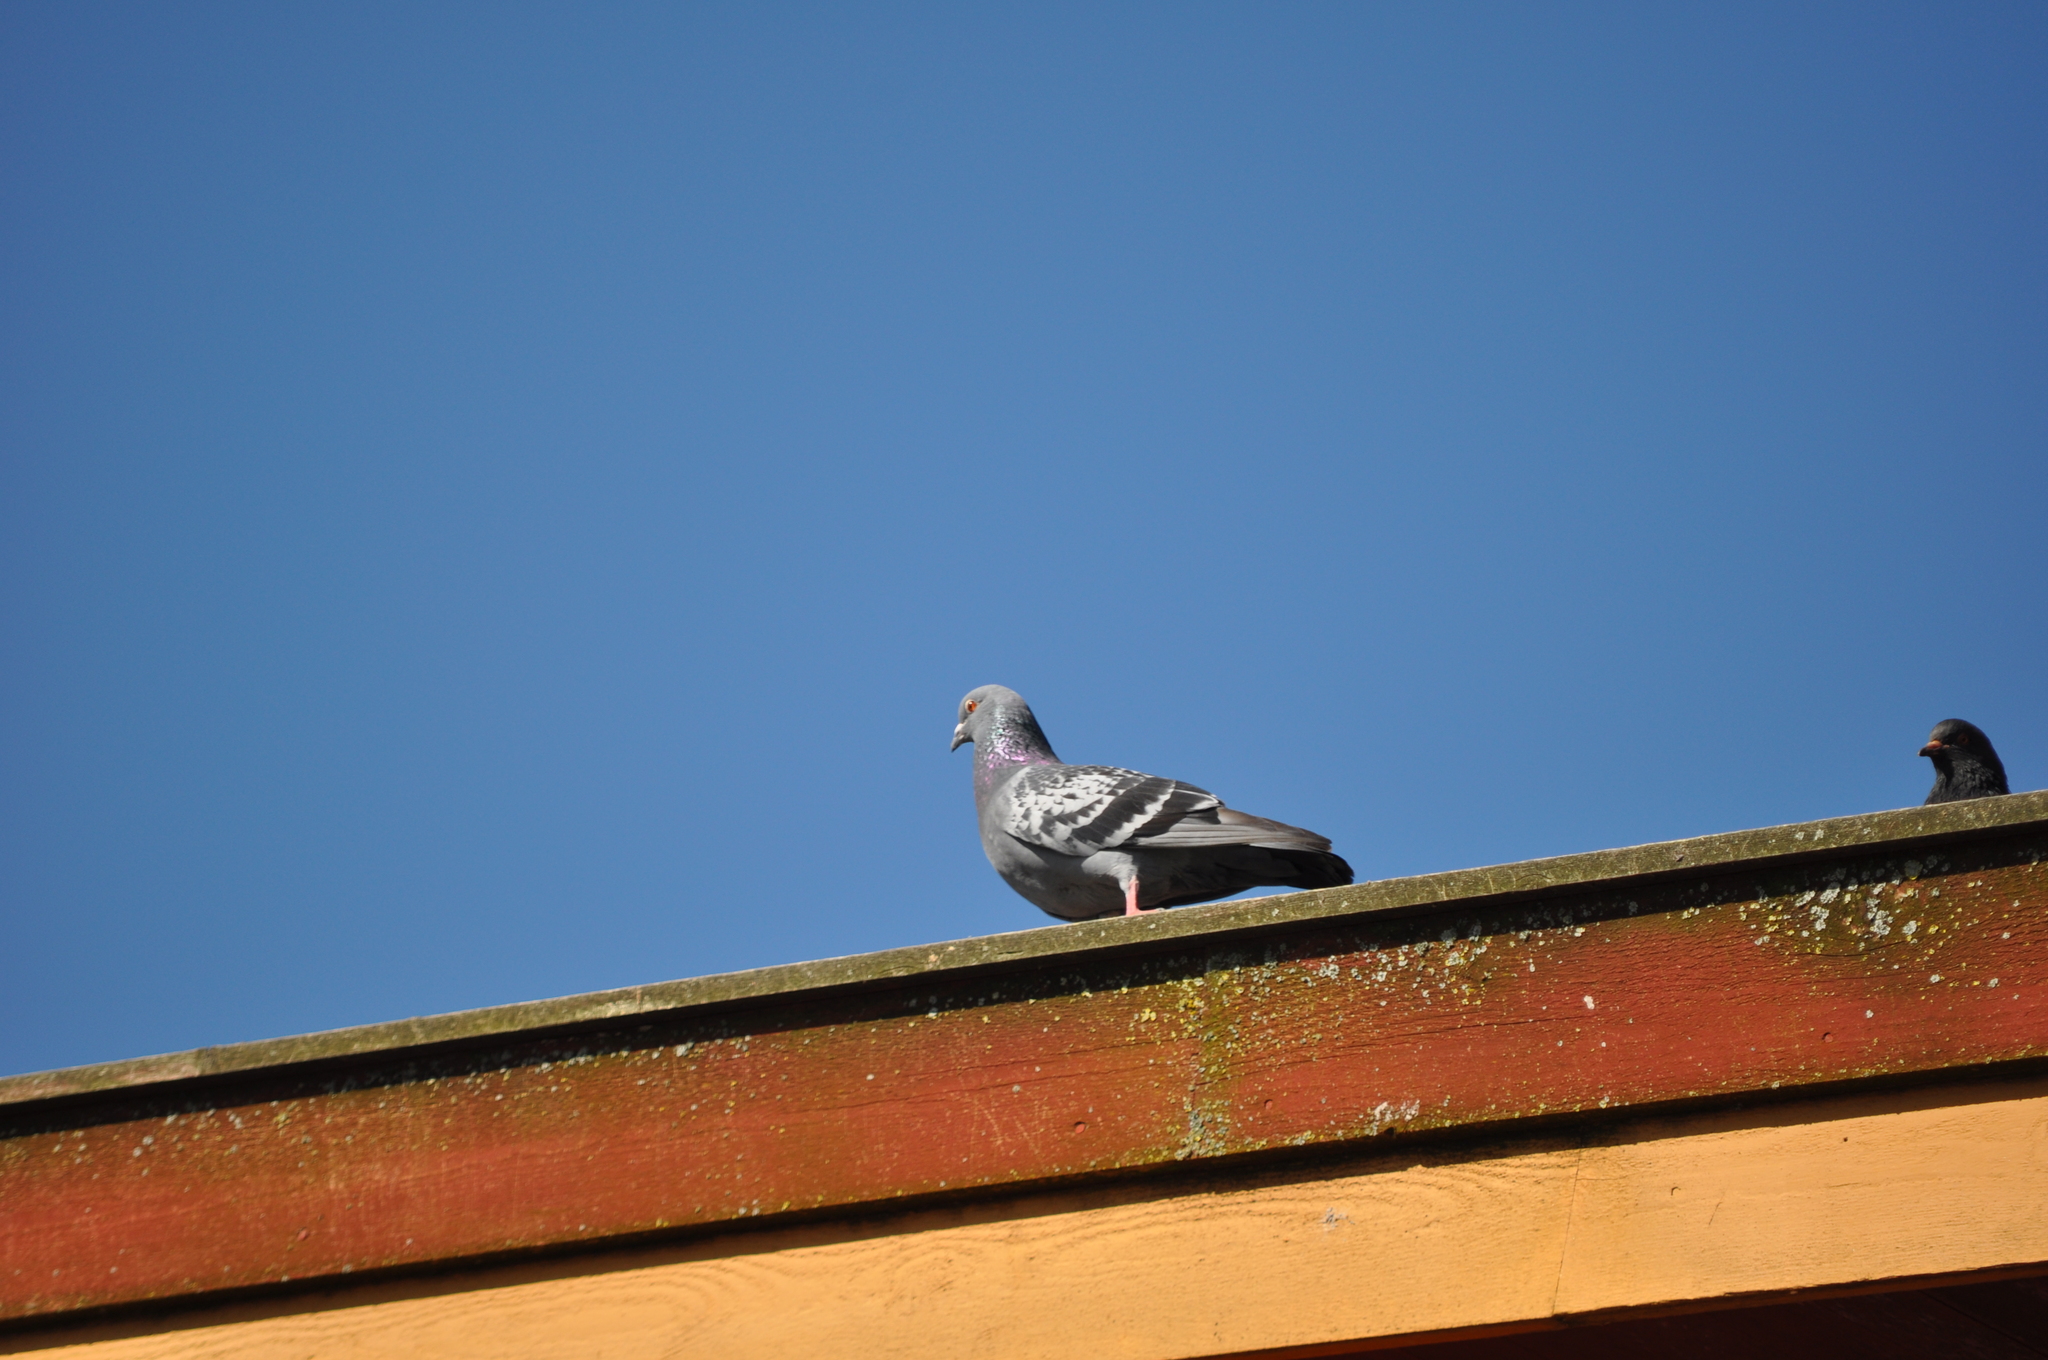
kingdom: Animalia
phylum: Chordata
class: Aves
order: Columbiformes
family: Columbidae
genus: Columba
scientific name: Columba livia
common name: Rock pigeon
